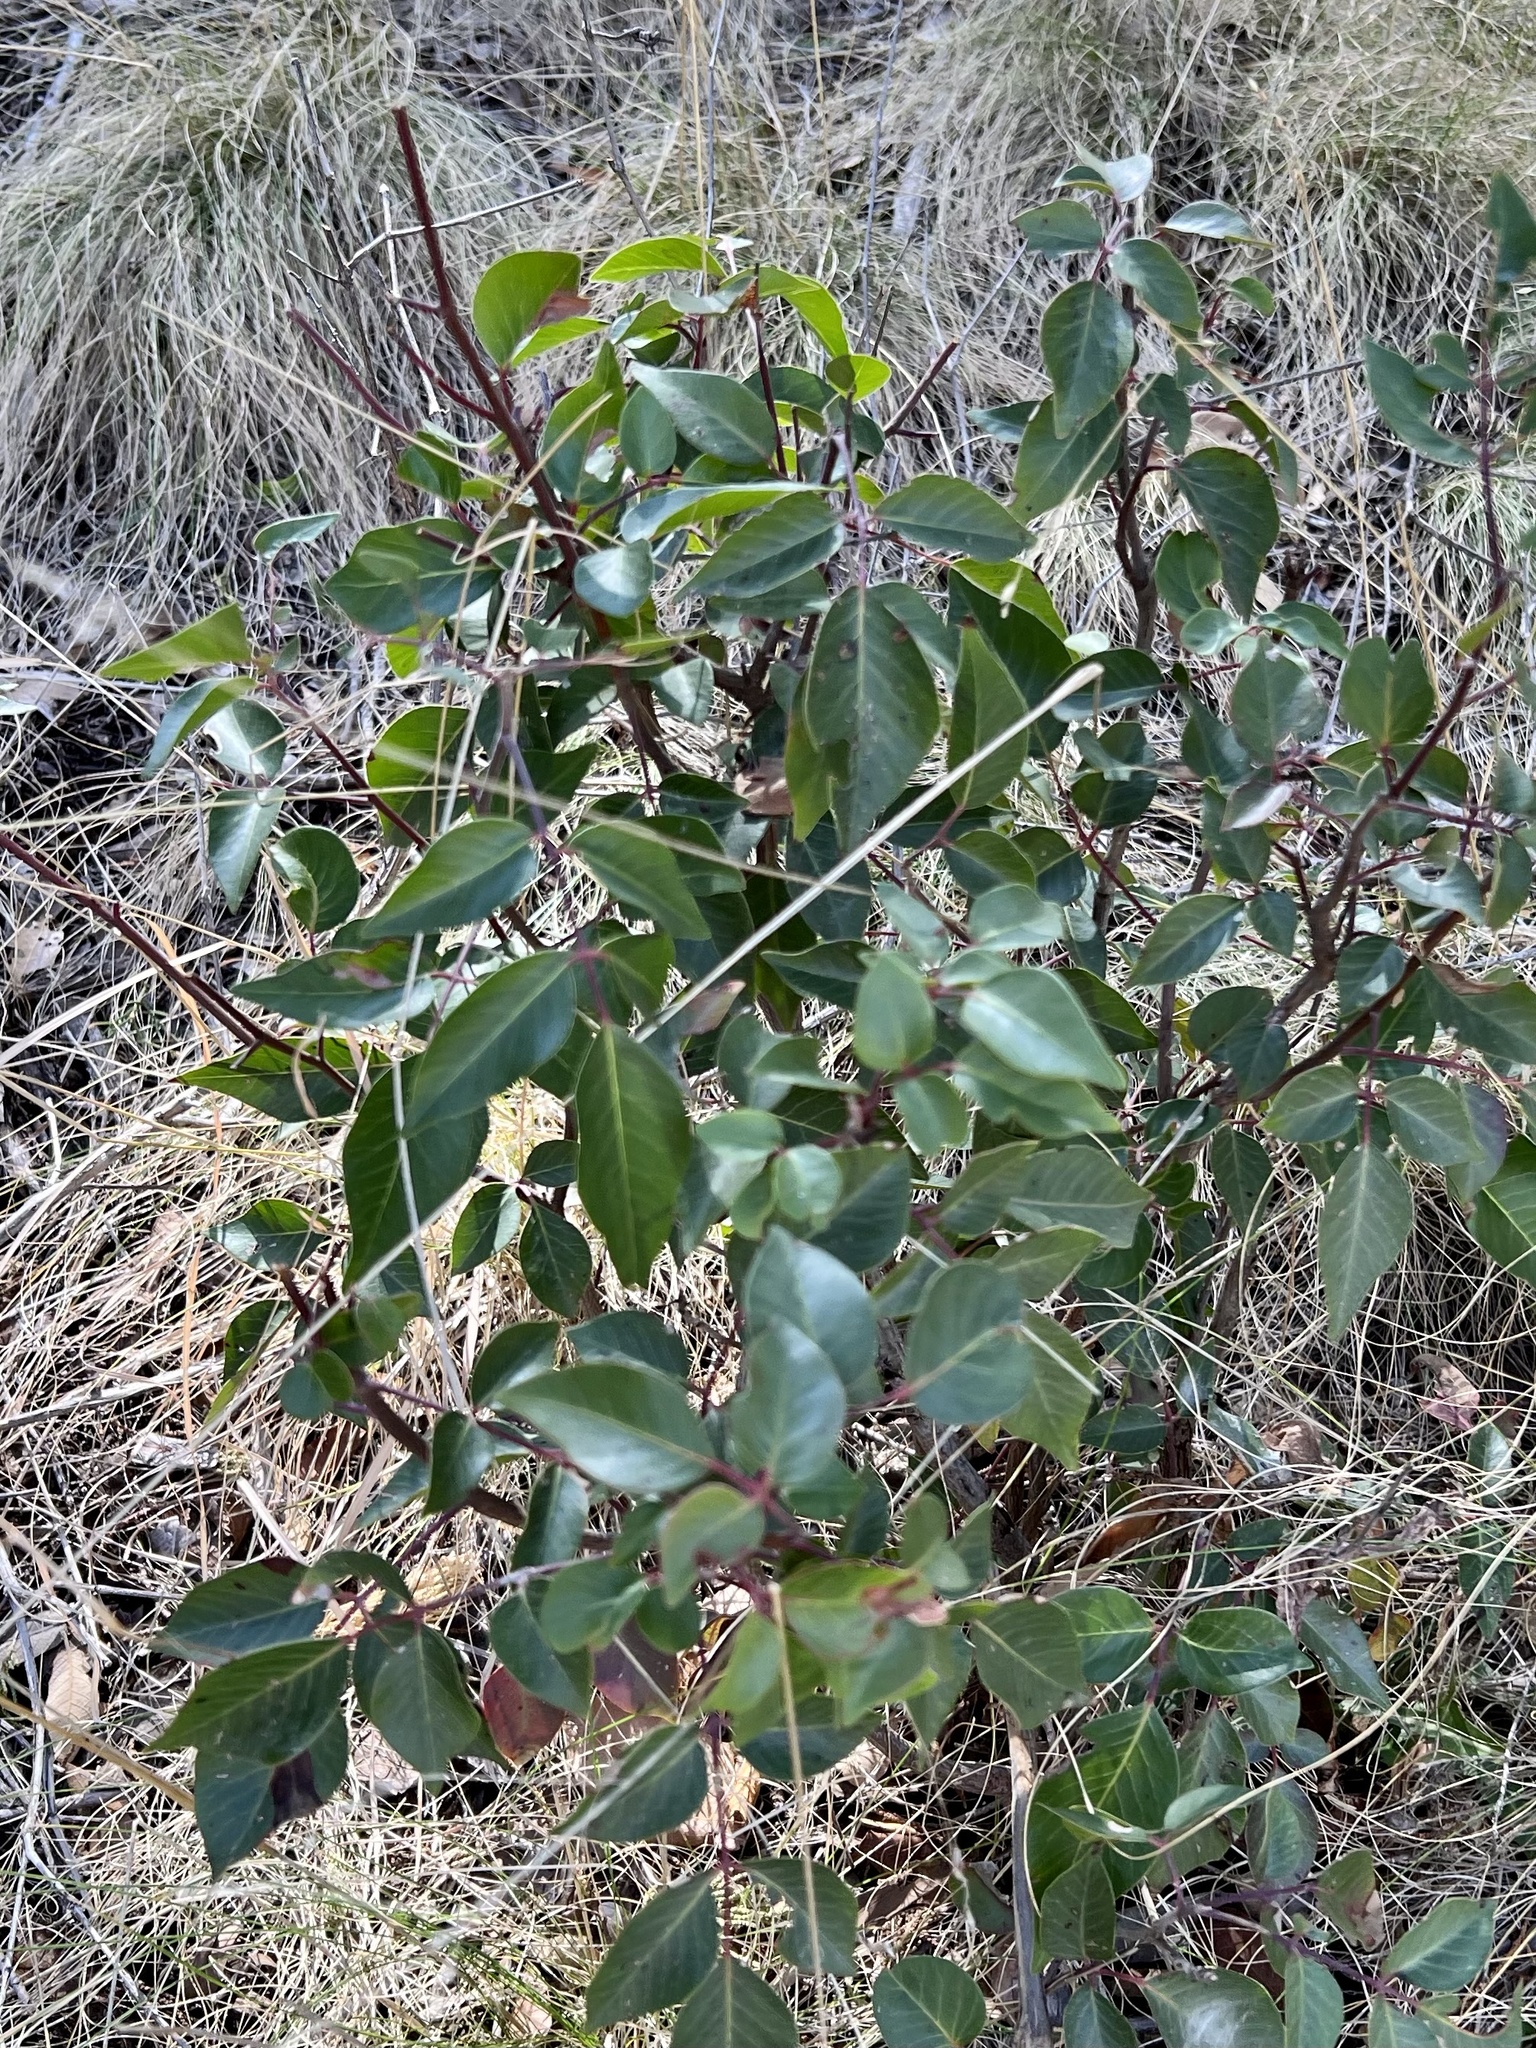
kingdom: Plantae
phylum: Tracheophyta
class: Magnoliopsida
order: Sapindales
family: Anacardiaceae
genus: Rhus
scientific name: Rhus virens
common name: Evergreen sumac
